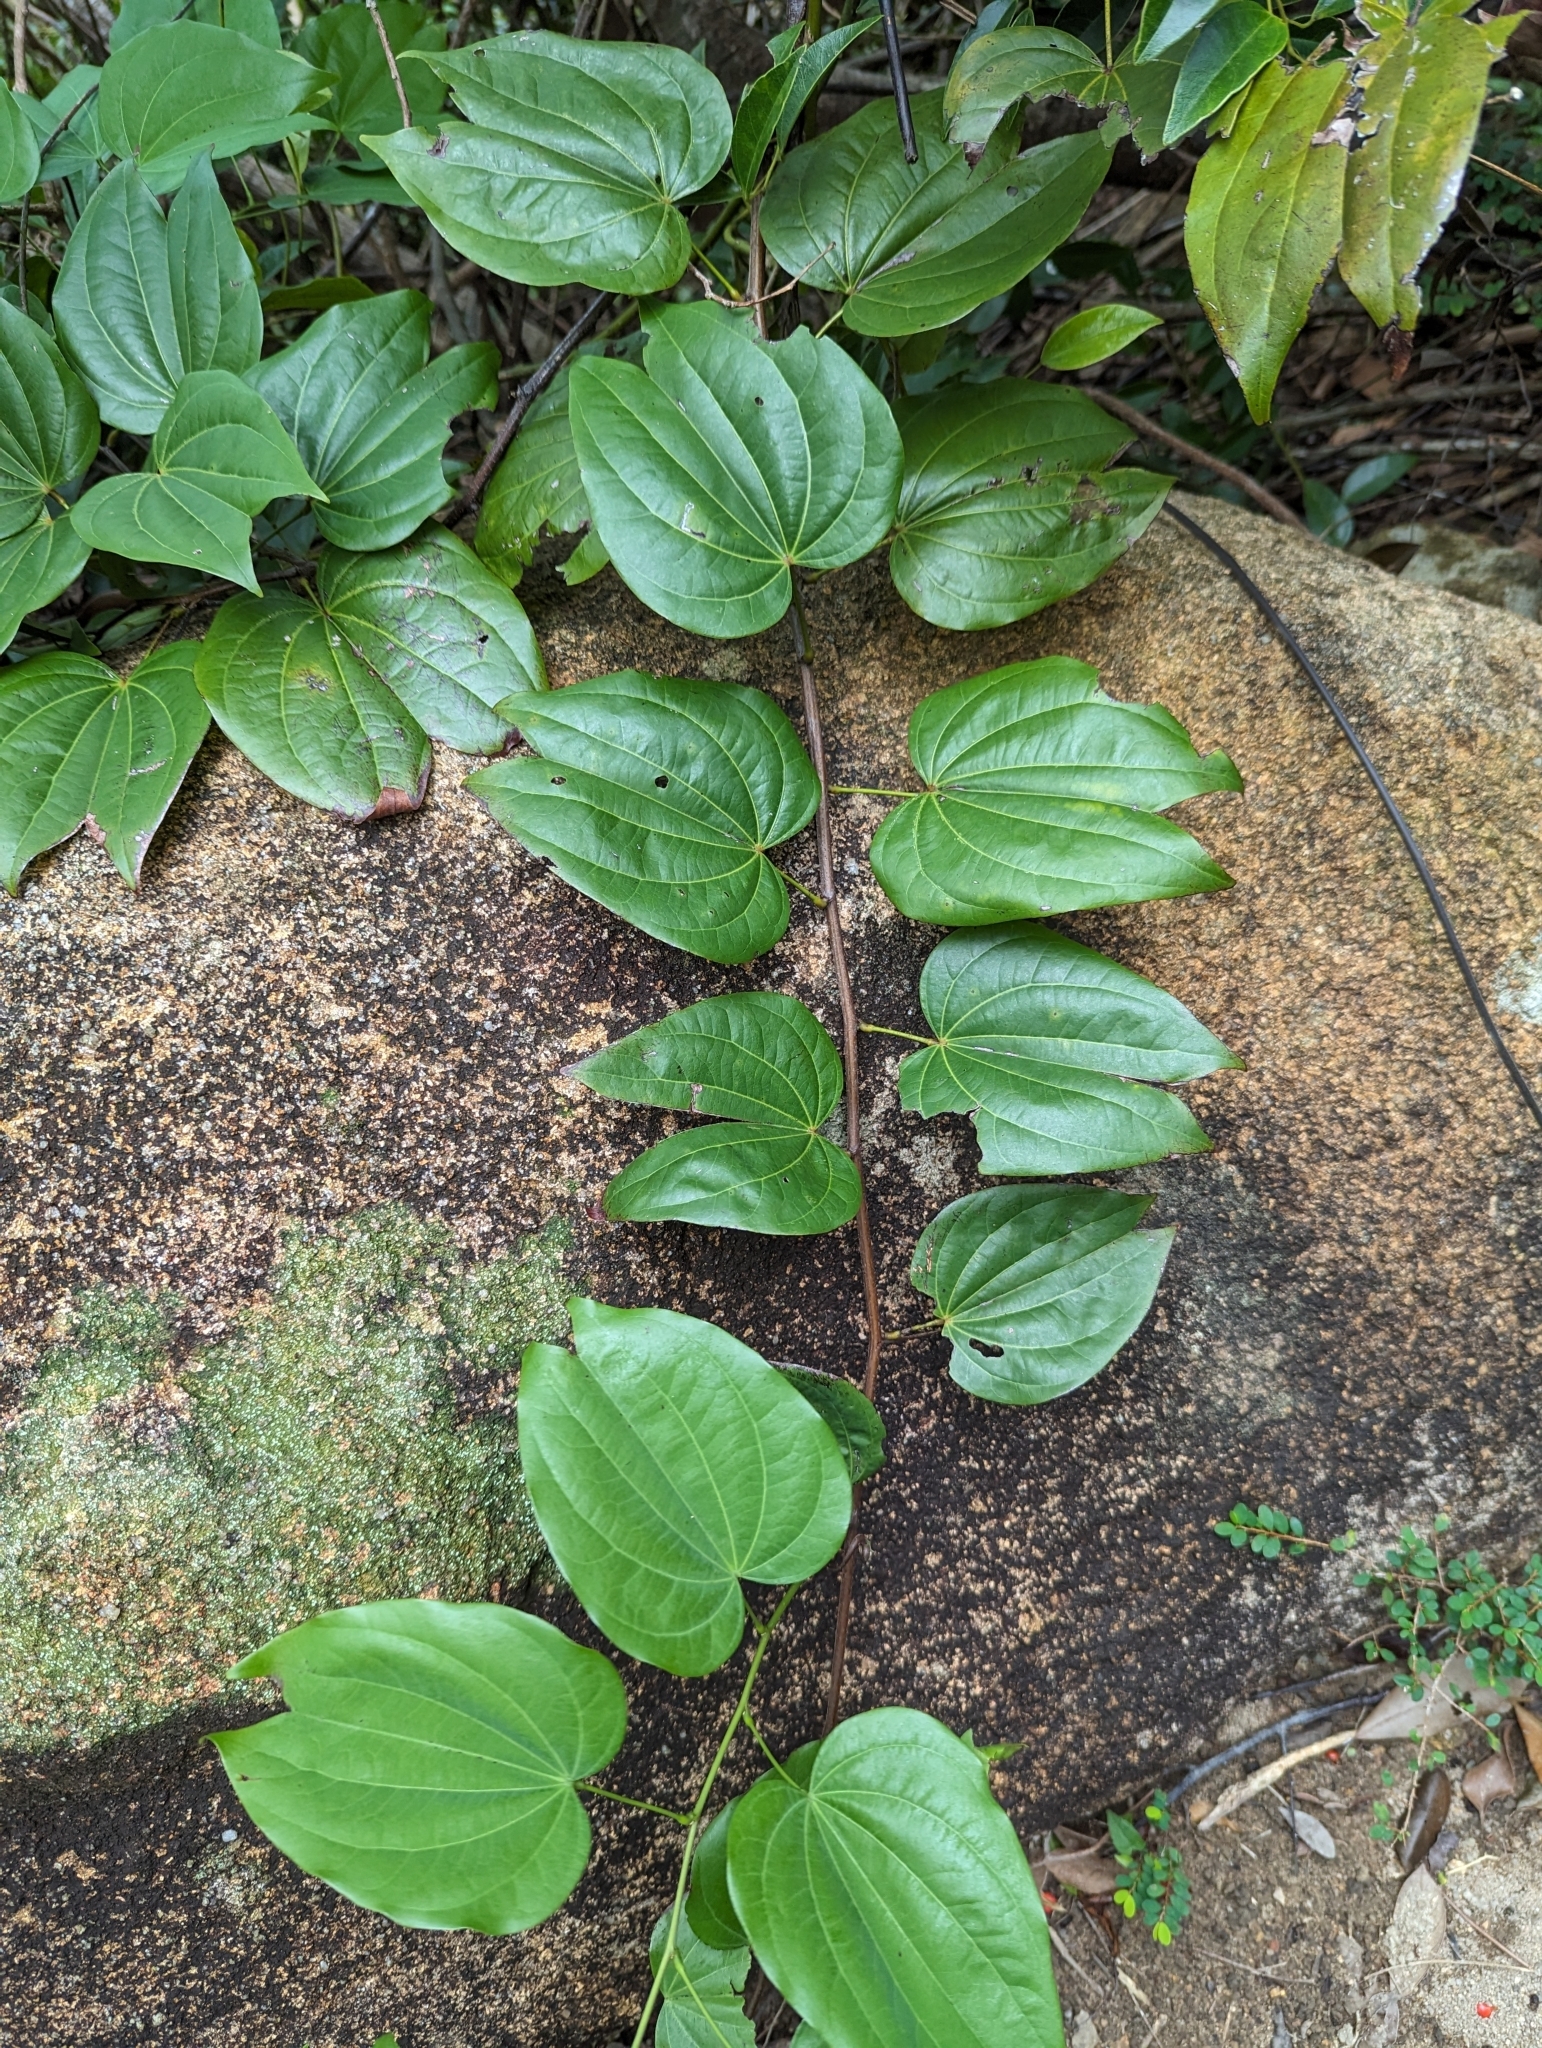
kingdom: Plantae
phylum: Tracheophyta
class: Magnoliopsida
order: Fabales
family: Fabaceae
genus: Phanera
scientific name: Phanera championii
